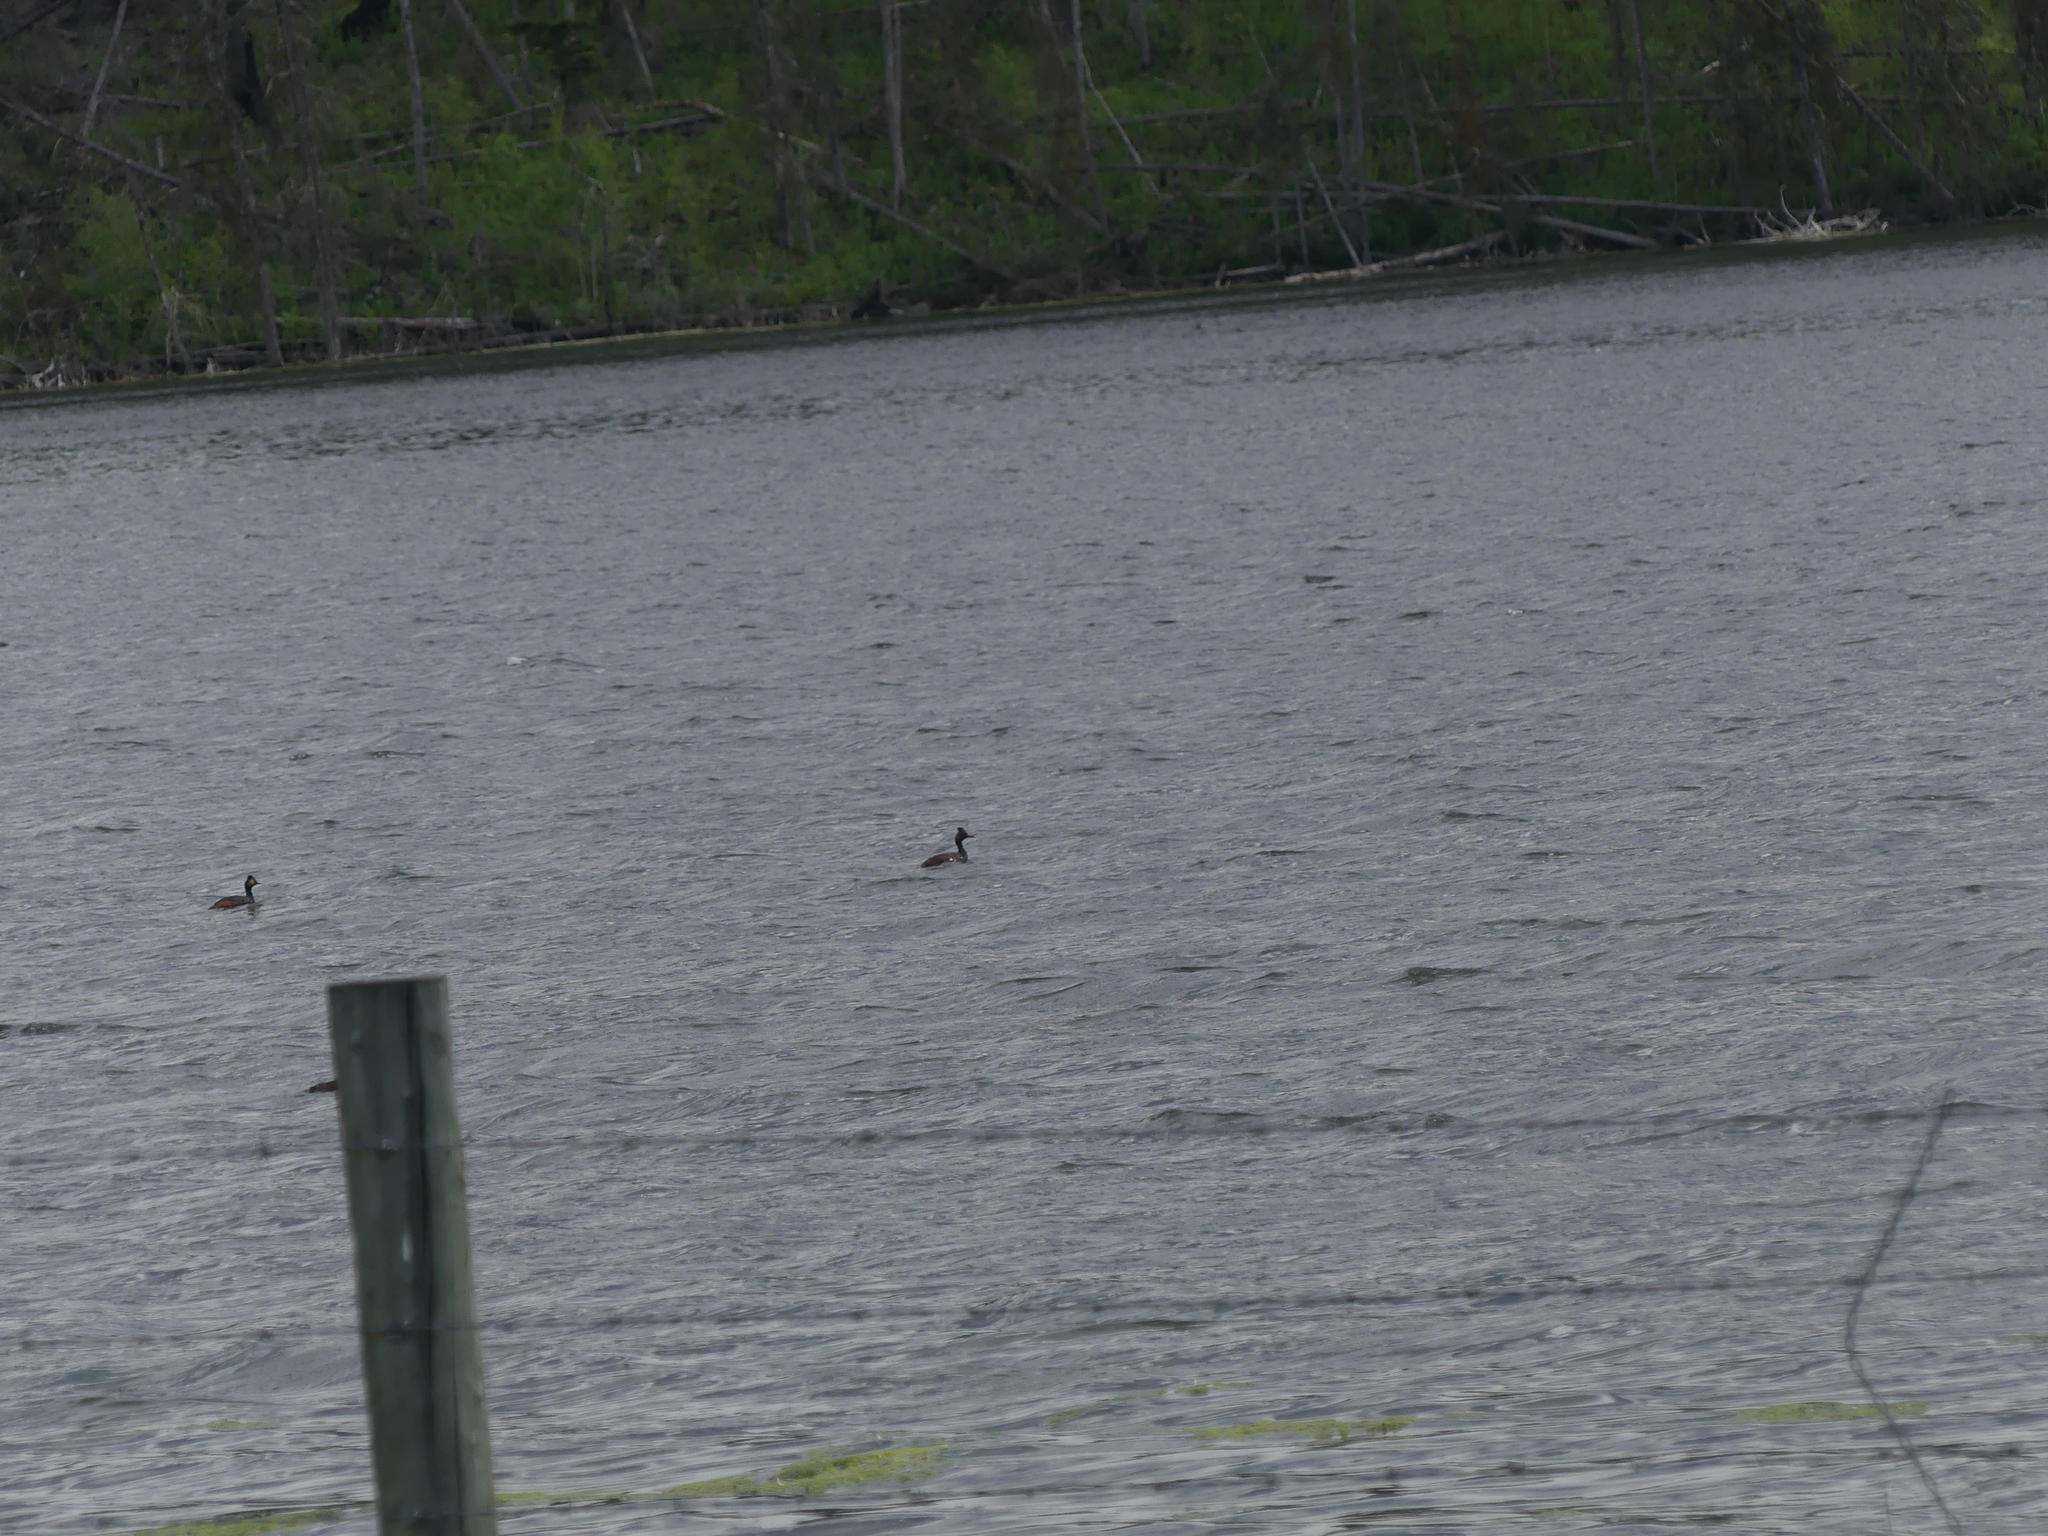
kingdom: Animalia
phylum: Chordata
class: Aves
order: Podicipediformes
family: Podicipedidae
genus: Podiceps
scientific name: Podiceps nigricollis
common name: Black-necked grebe
